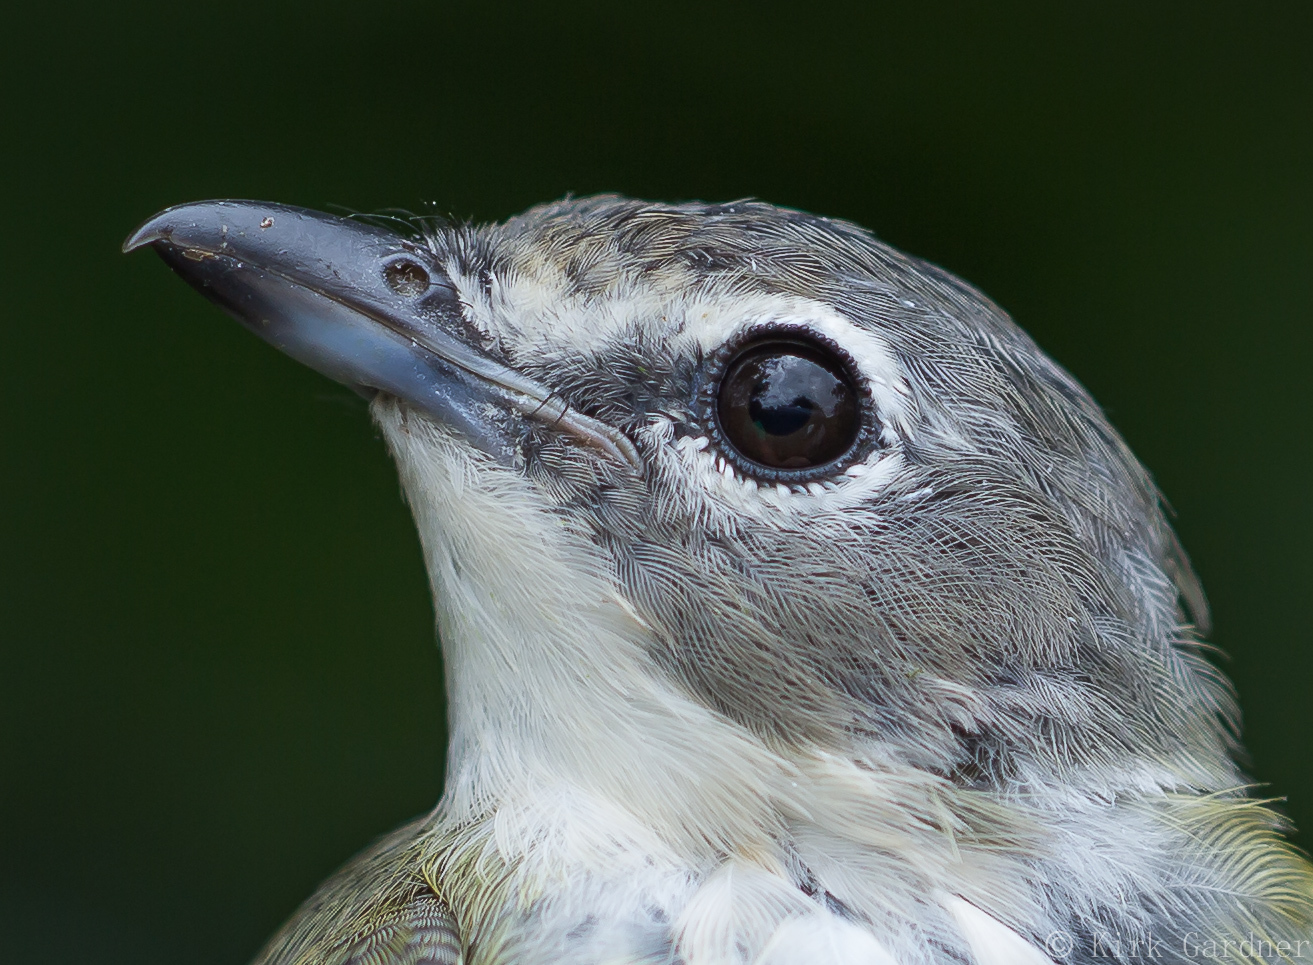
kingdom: Animalia
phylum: Chordata
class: Aves
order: Passeriformes
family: Vireonidae
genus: Vireo
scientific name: Vireo solitarius
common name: Blue-headed vireo
